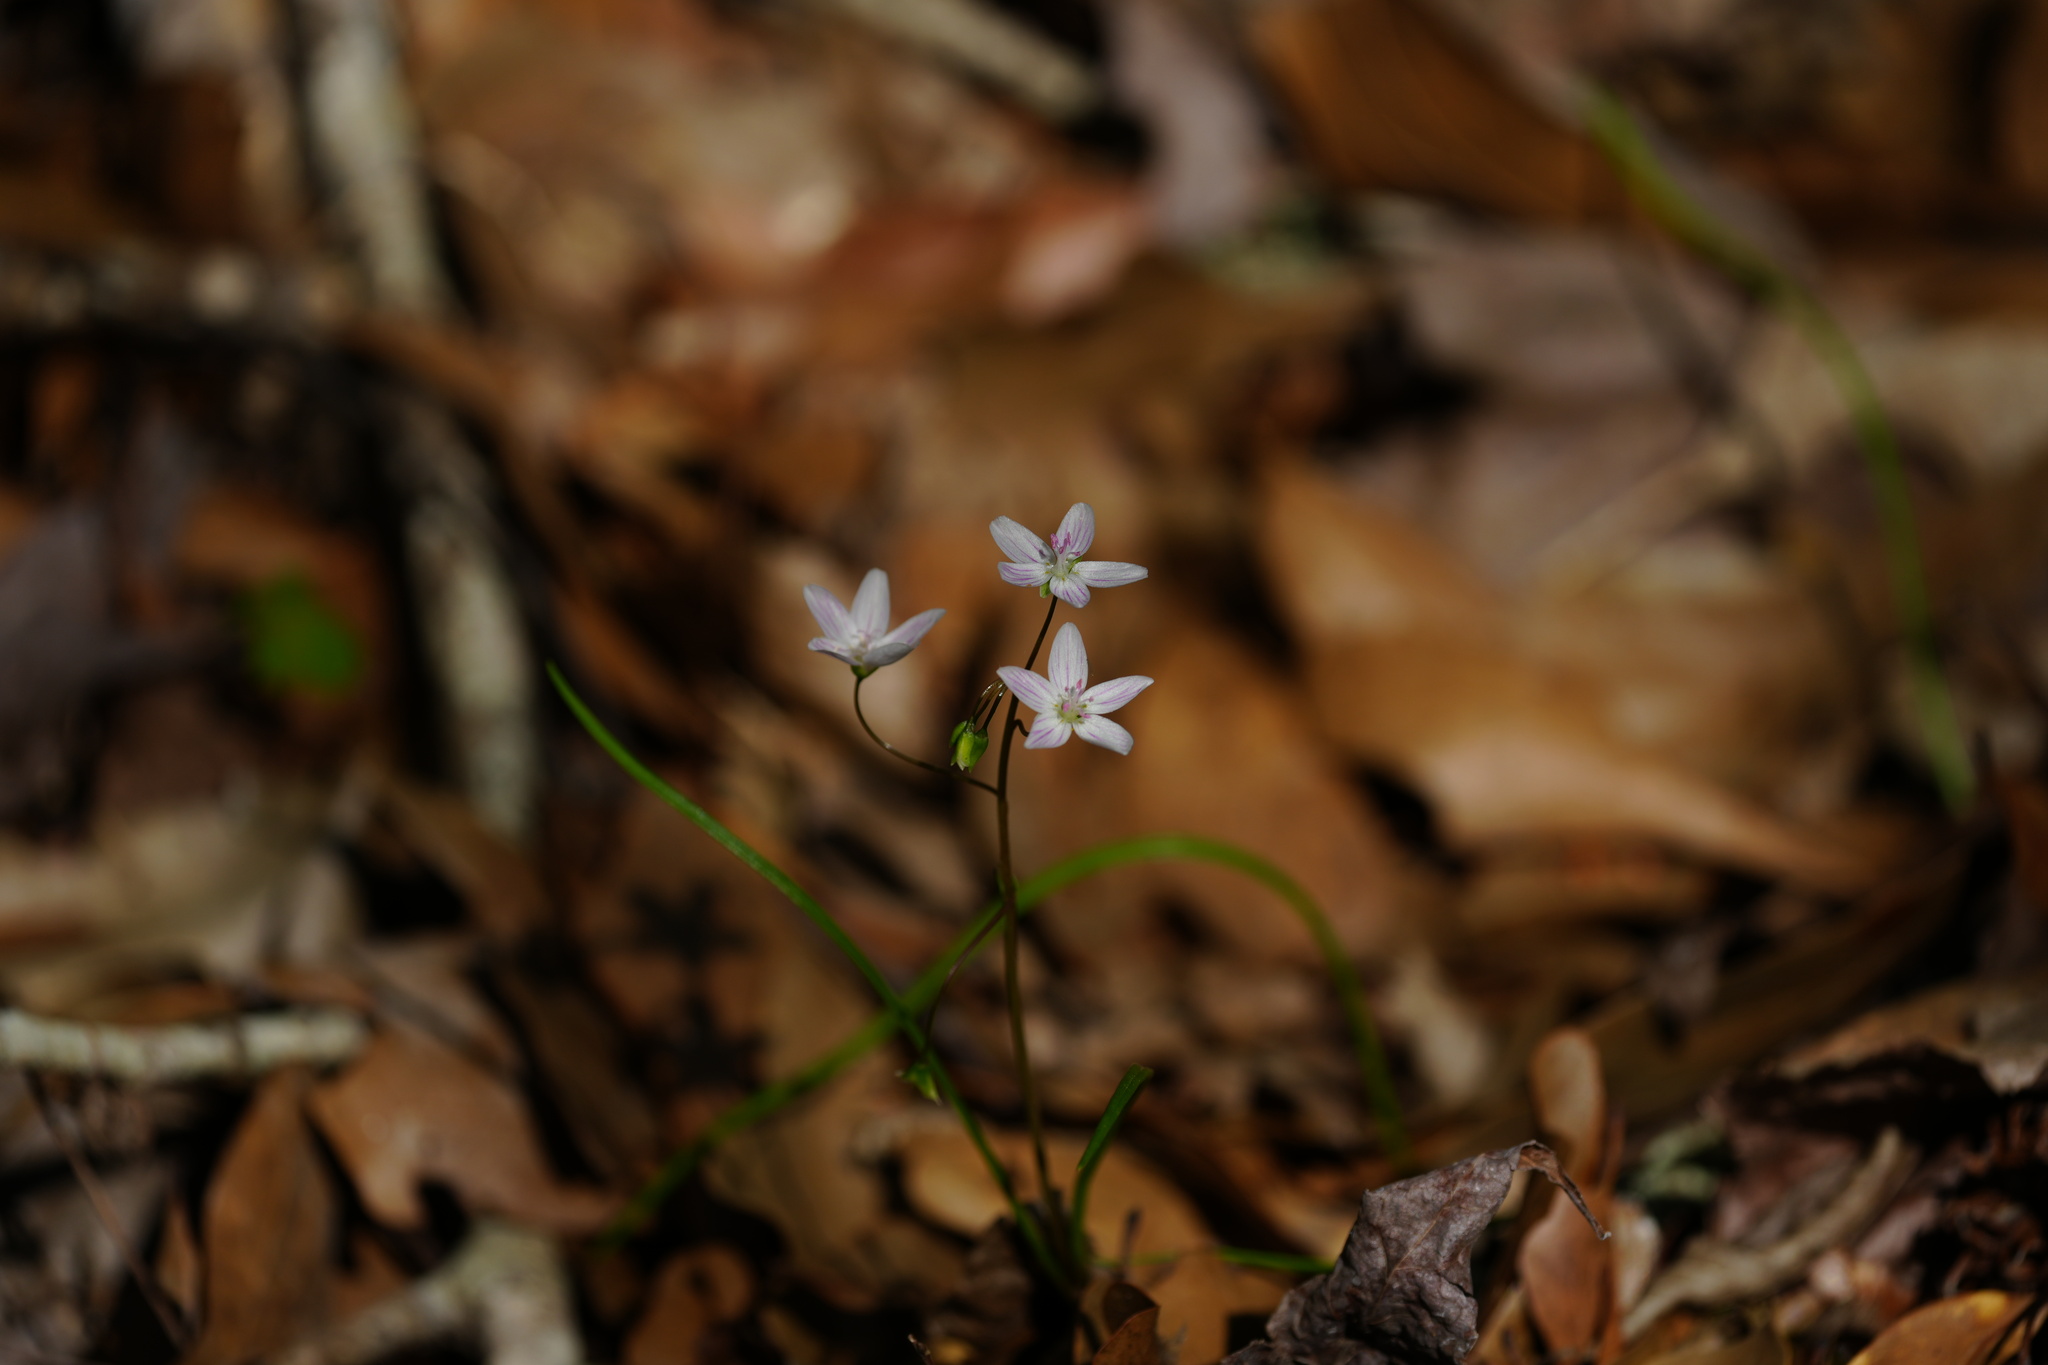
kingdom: Plantae
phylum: Tracheophyta
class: Magnoliopsida
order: Caryophyllales
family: Montiaceae
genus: Claytonia
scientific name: Claytonia virginica
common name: Virginia springbeauty
